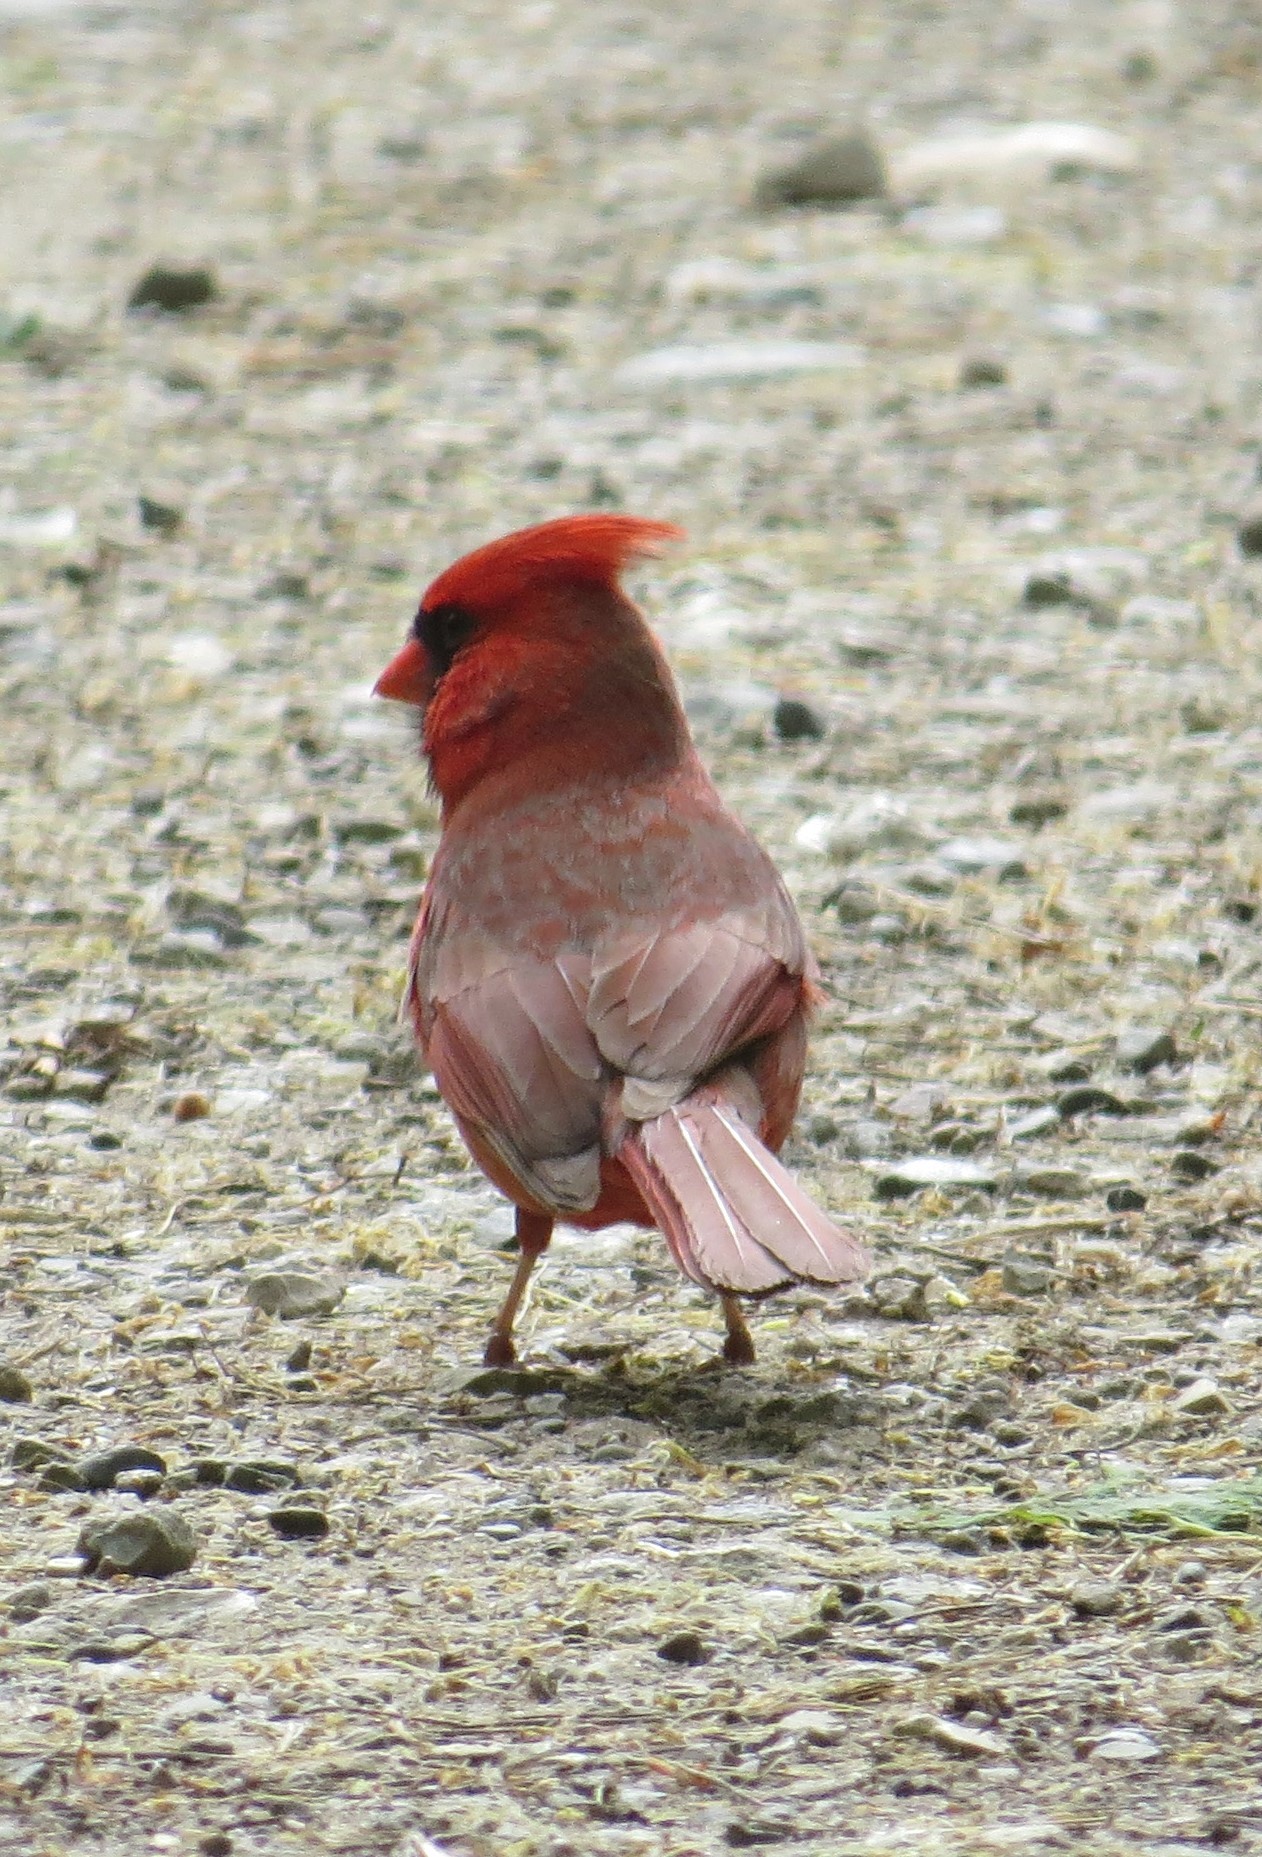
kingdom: Animalia
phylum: Chordata
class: Aves
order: Passeriformes
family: Cardinalidae
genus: Cardinalis
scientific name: Cardinalis cardinalis
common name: Northern cardinal
